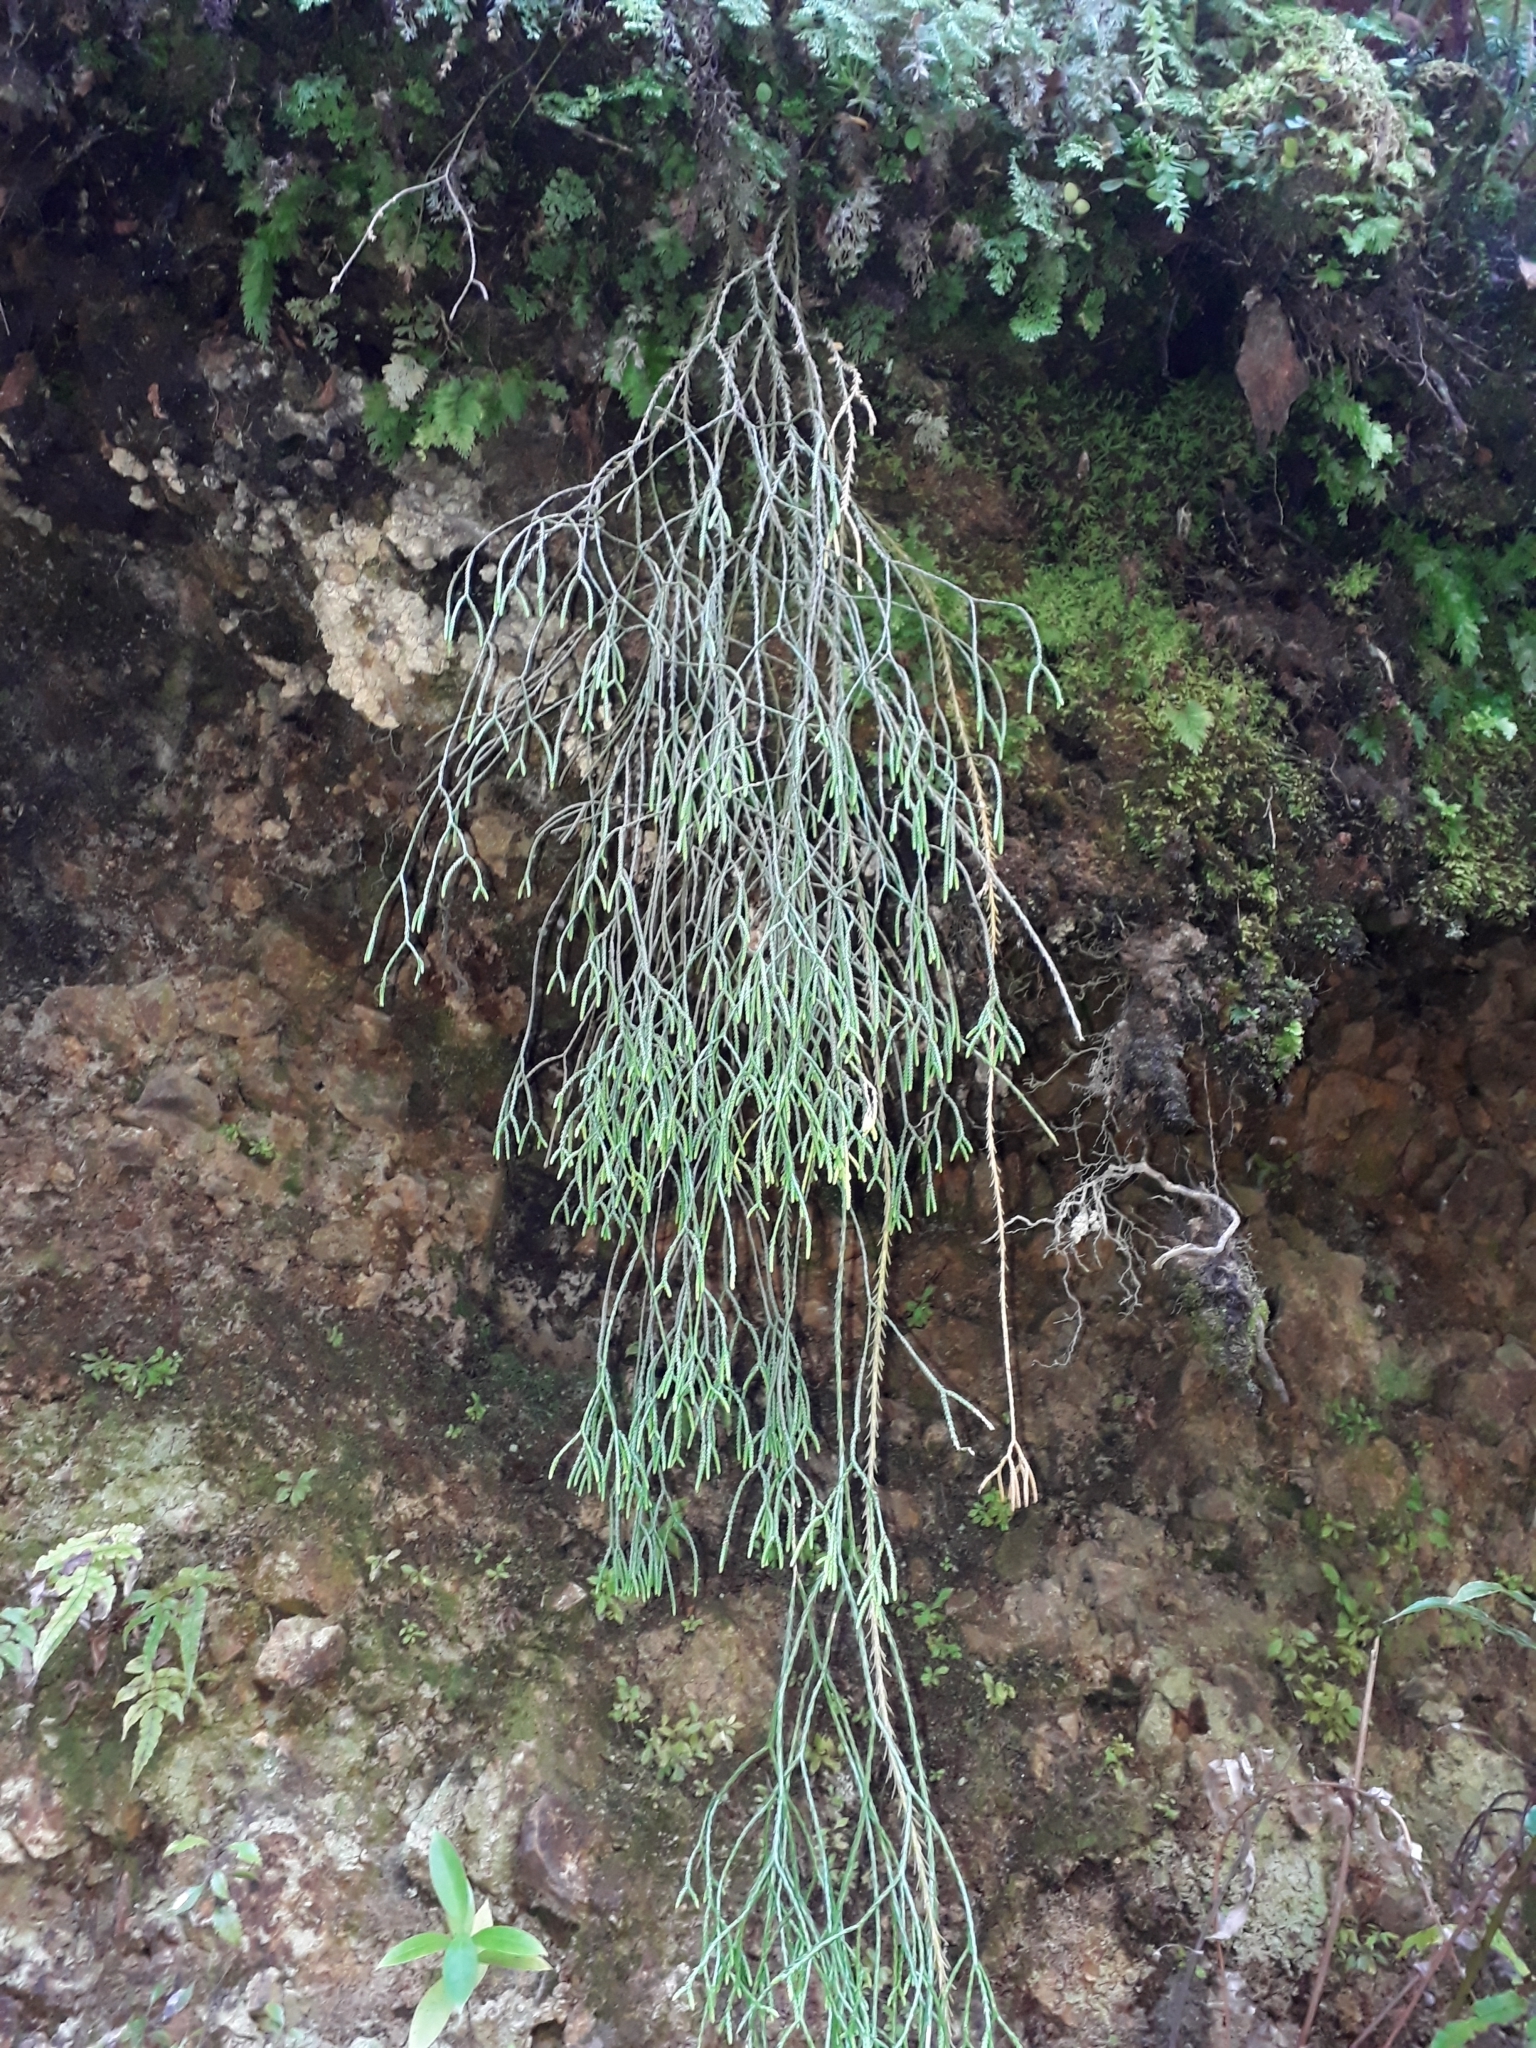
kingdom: Plantae
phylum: Tracheophyta
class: Lycopodiopsida
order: Lycopodiales
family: Lycopodiaceae
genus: Phlegmariurus
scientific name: Phlegmariurus billardierei
